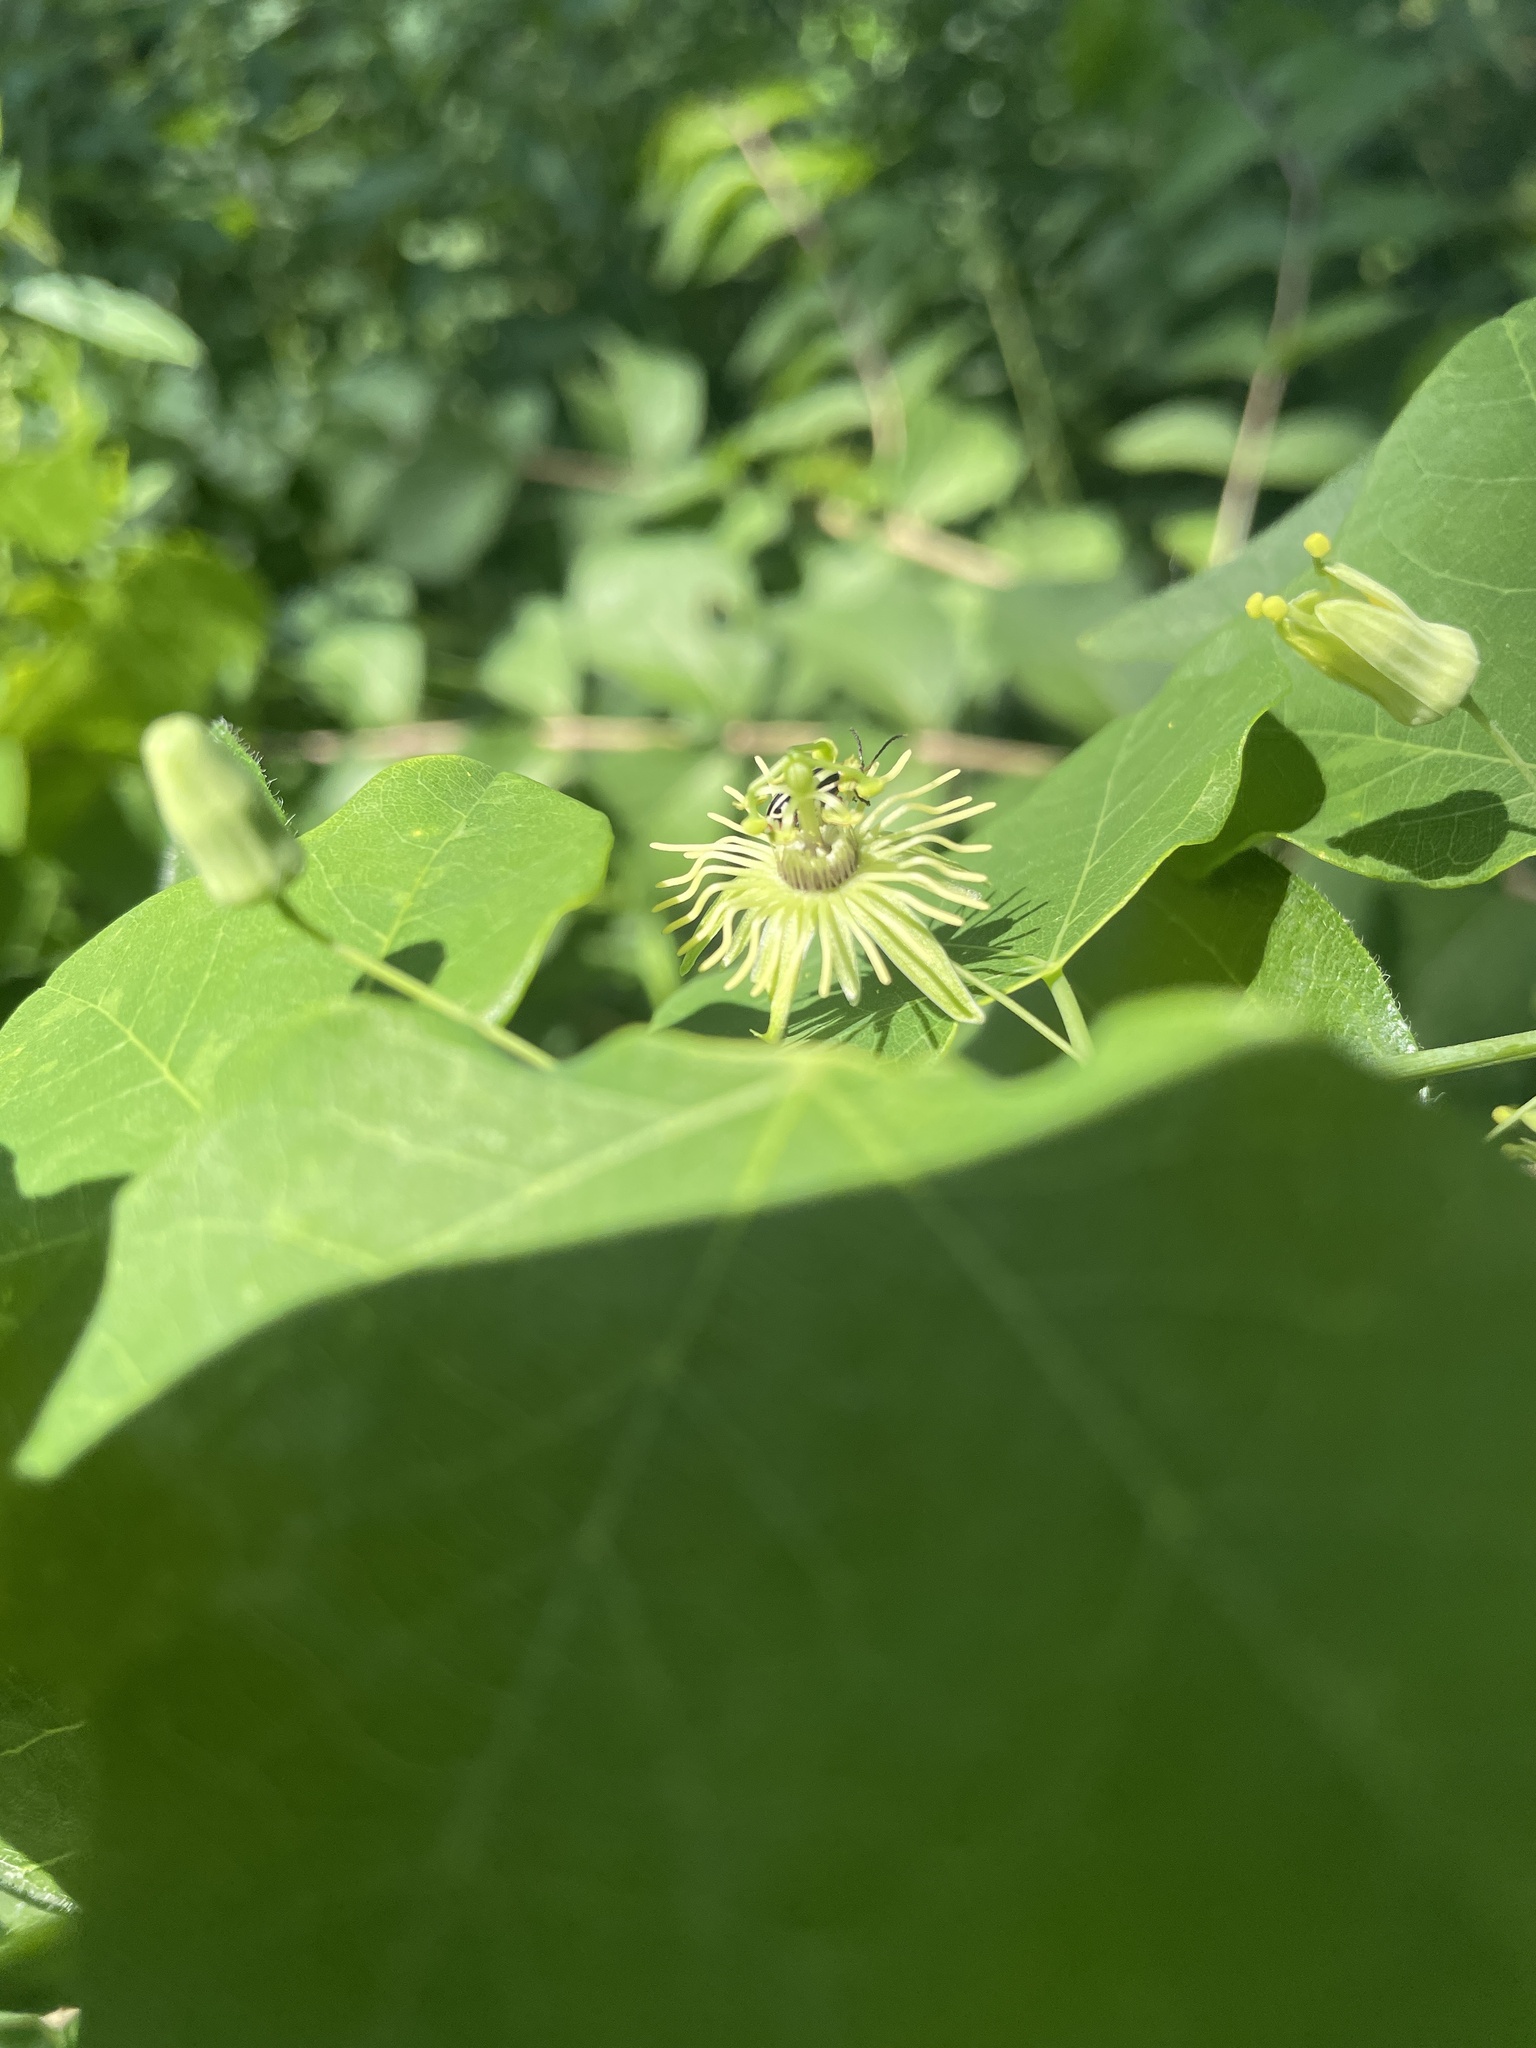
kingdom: Plantae
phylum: Tracheophyta
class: Magnoliopsida
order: Malpighiales
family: Passifloraceae
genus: Passiflora
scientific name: Passiflora lutea
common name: Yellow passionflower
